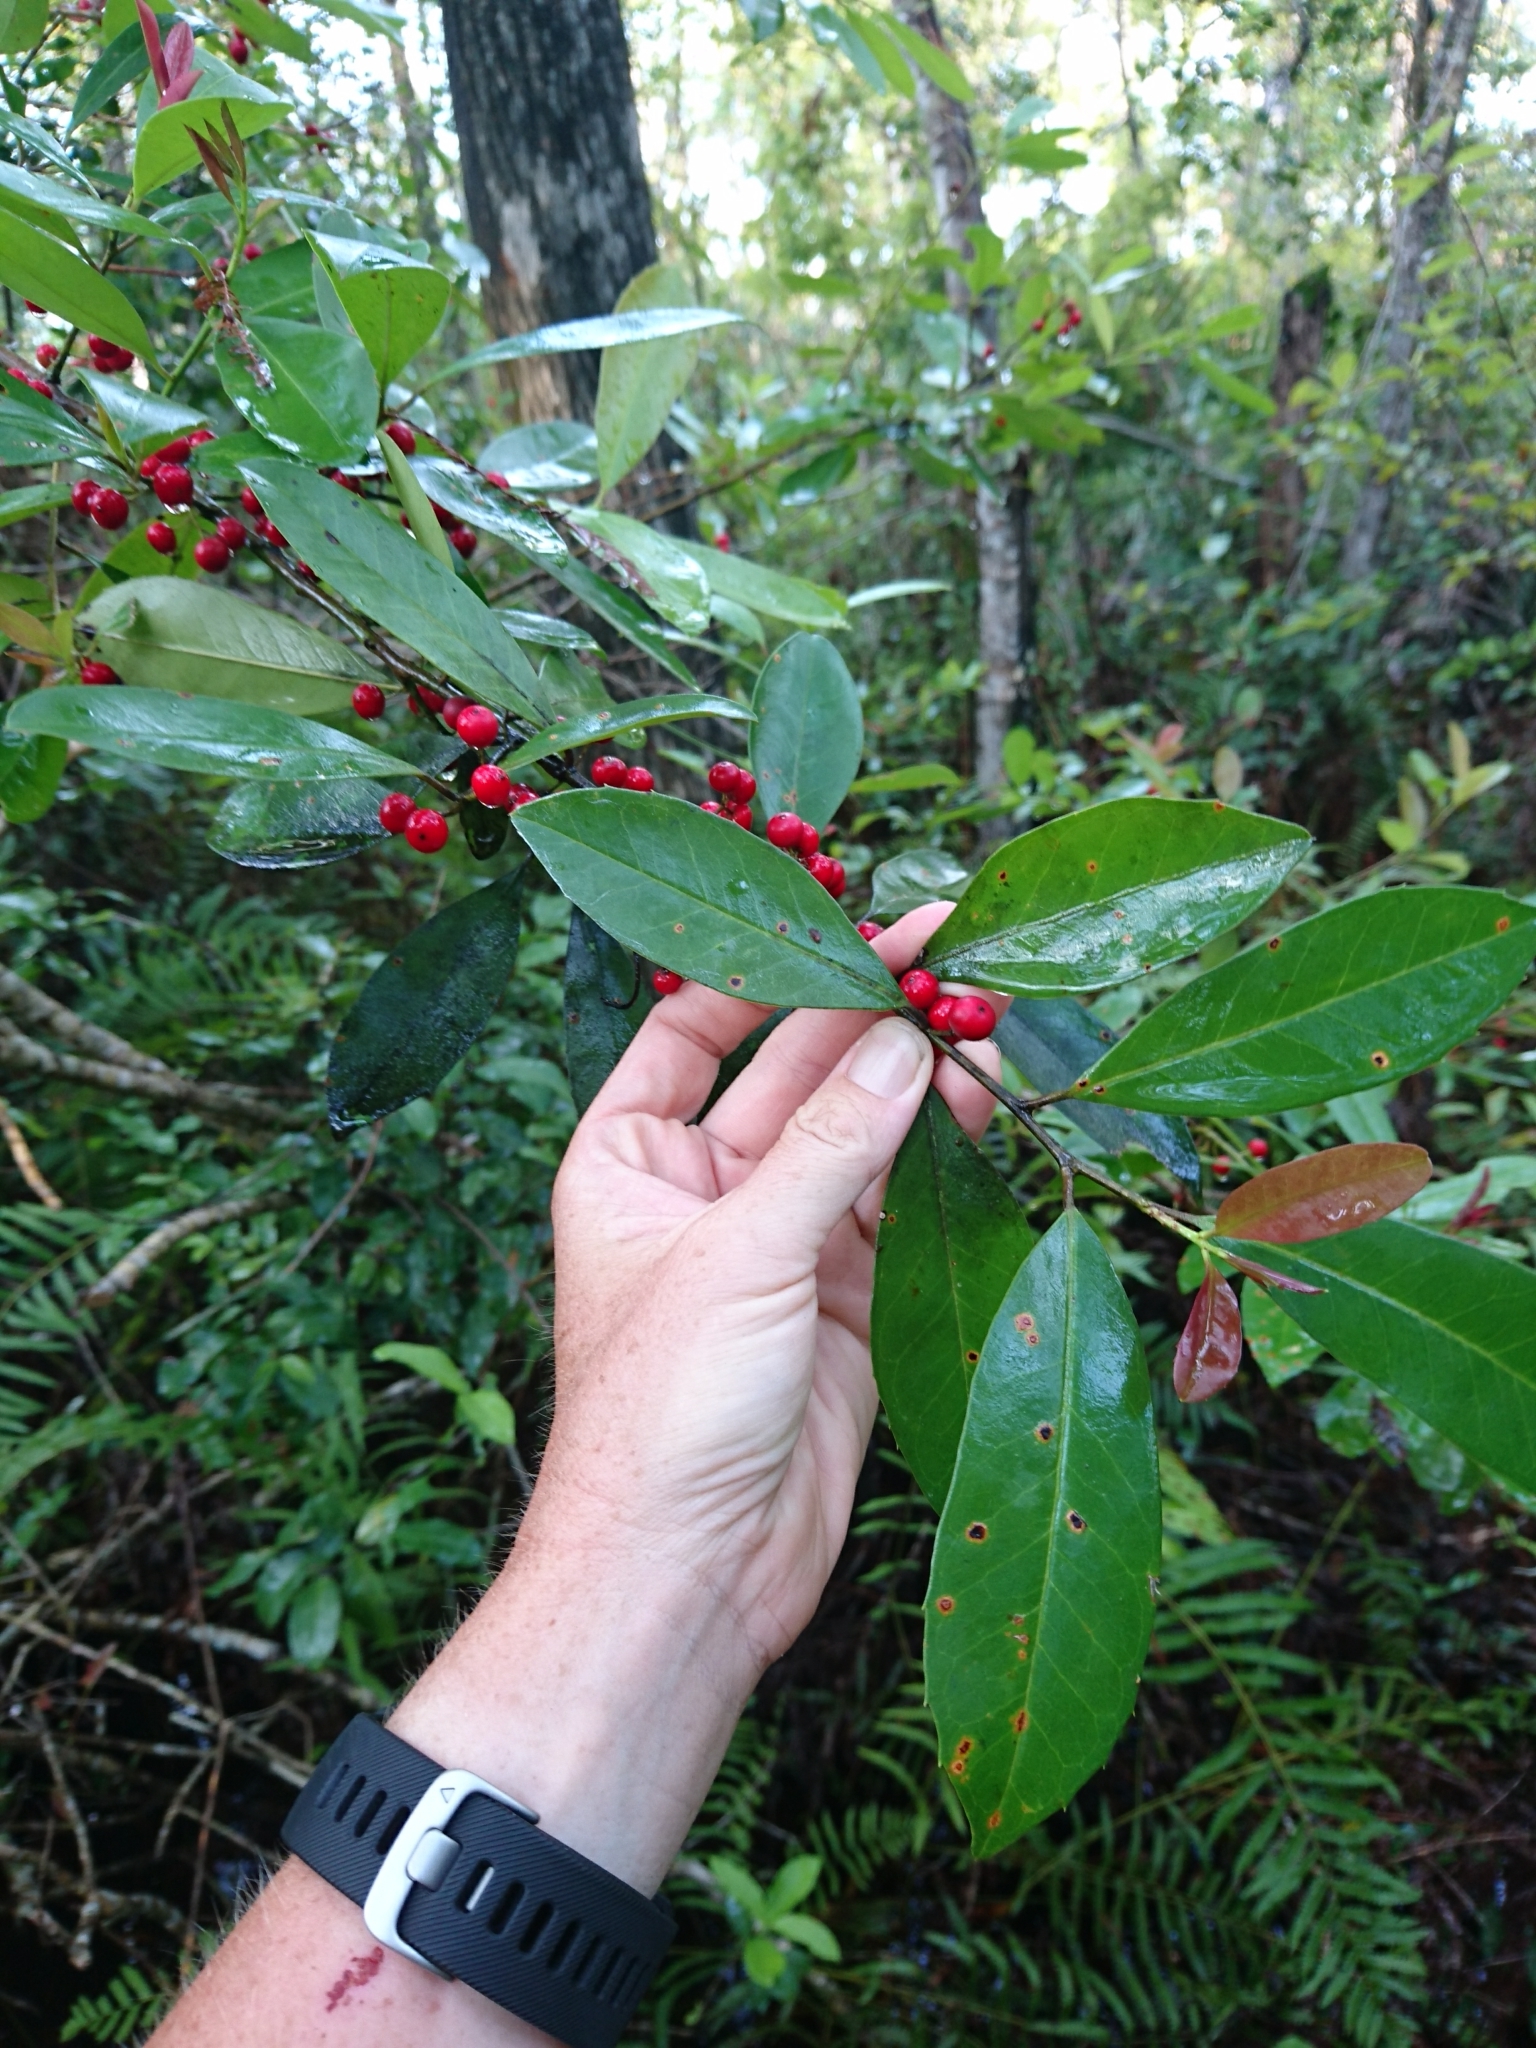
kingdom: Plantae
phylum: Tracheophyta
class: Magnoliopsida
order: Aquifoliales
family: Aquifoliaceae
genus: Ilex
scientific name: Ilex cassine
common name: Dahoon
